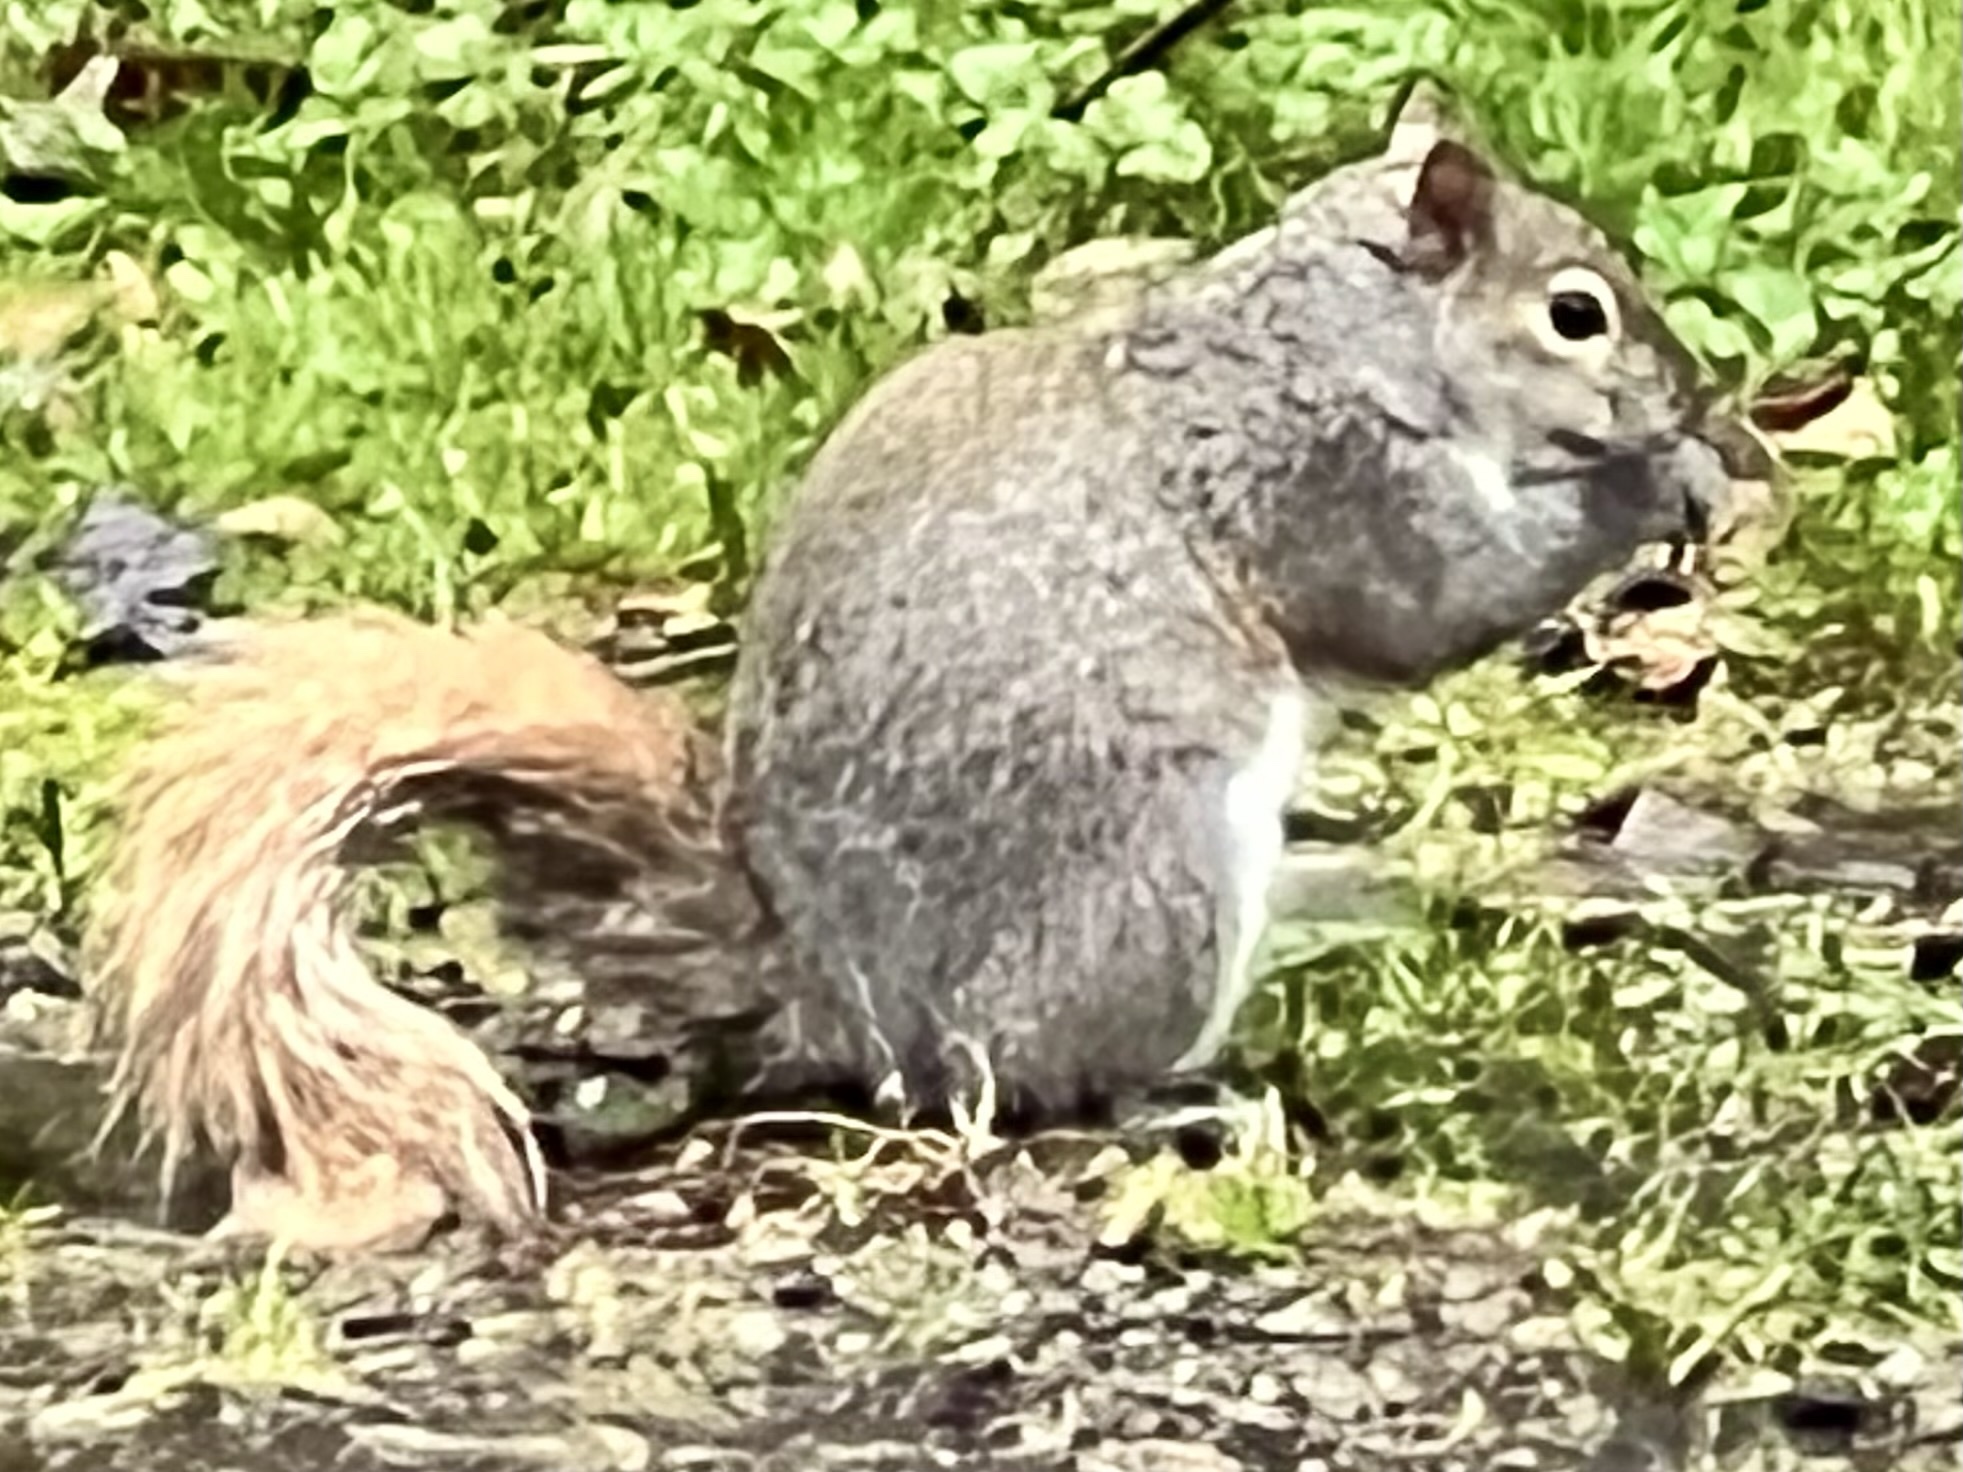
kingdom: Animalia
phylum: Chordata
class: Mammalia
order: Rodentia
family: Sciuridae
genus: Sciurus
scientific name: Sciurus carolinensis
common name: Eastern gray squirrel
